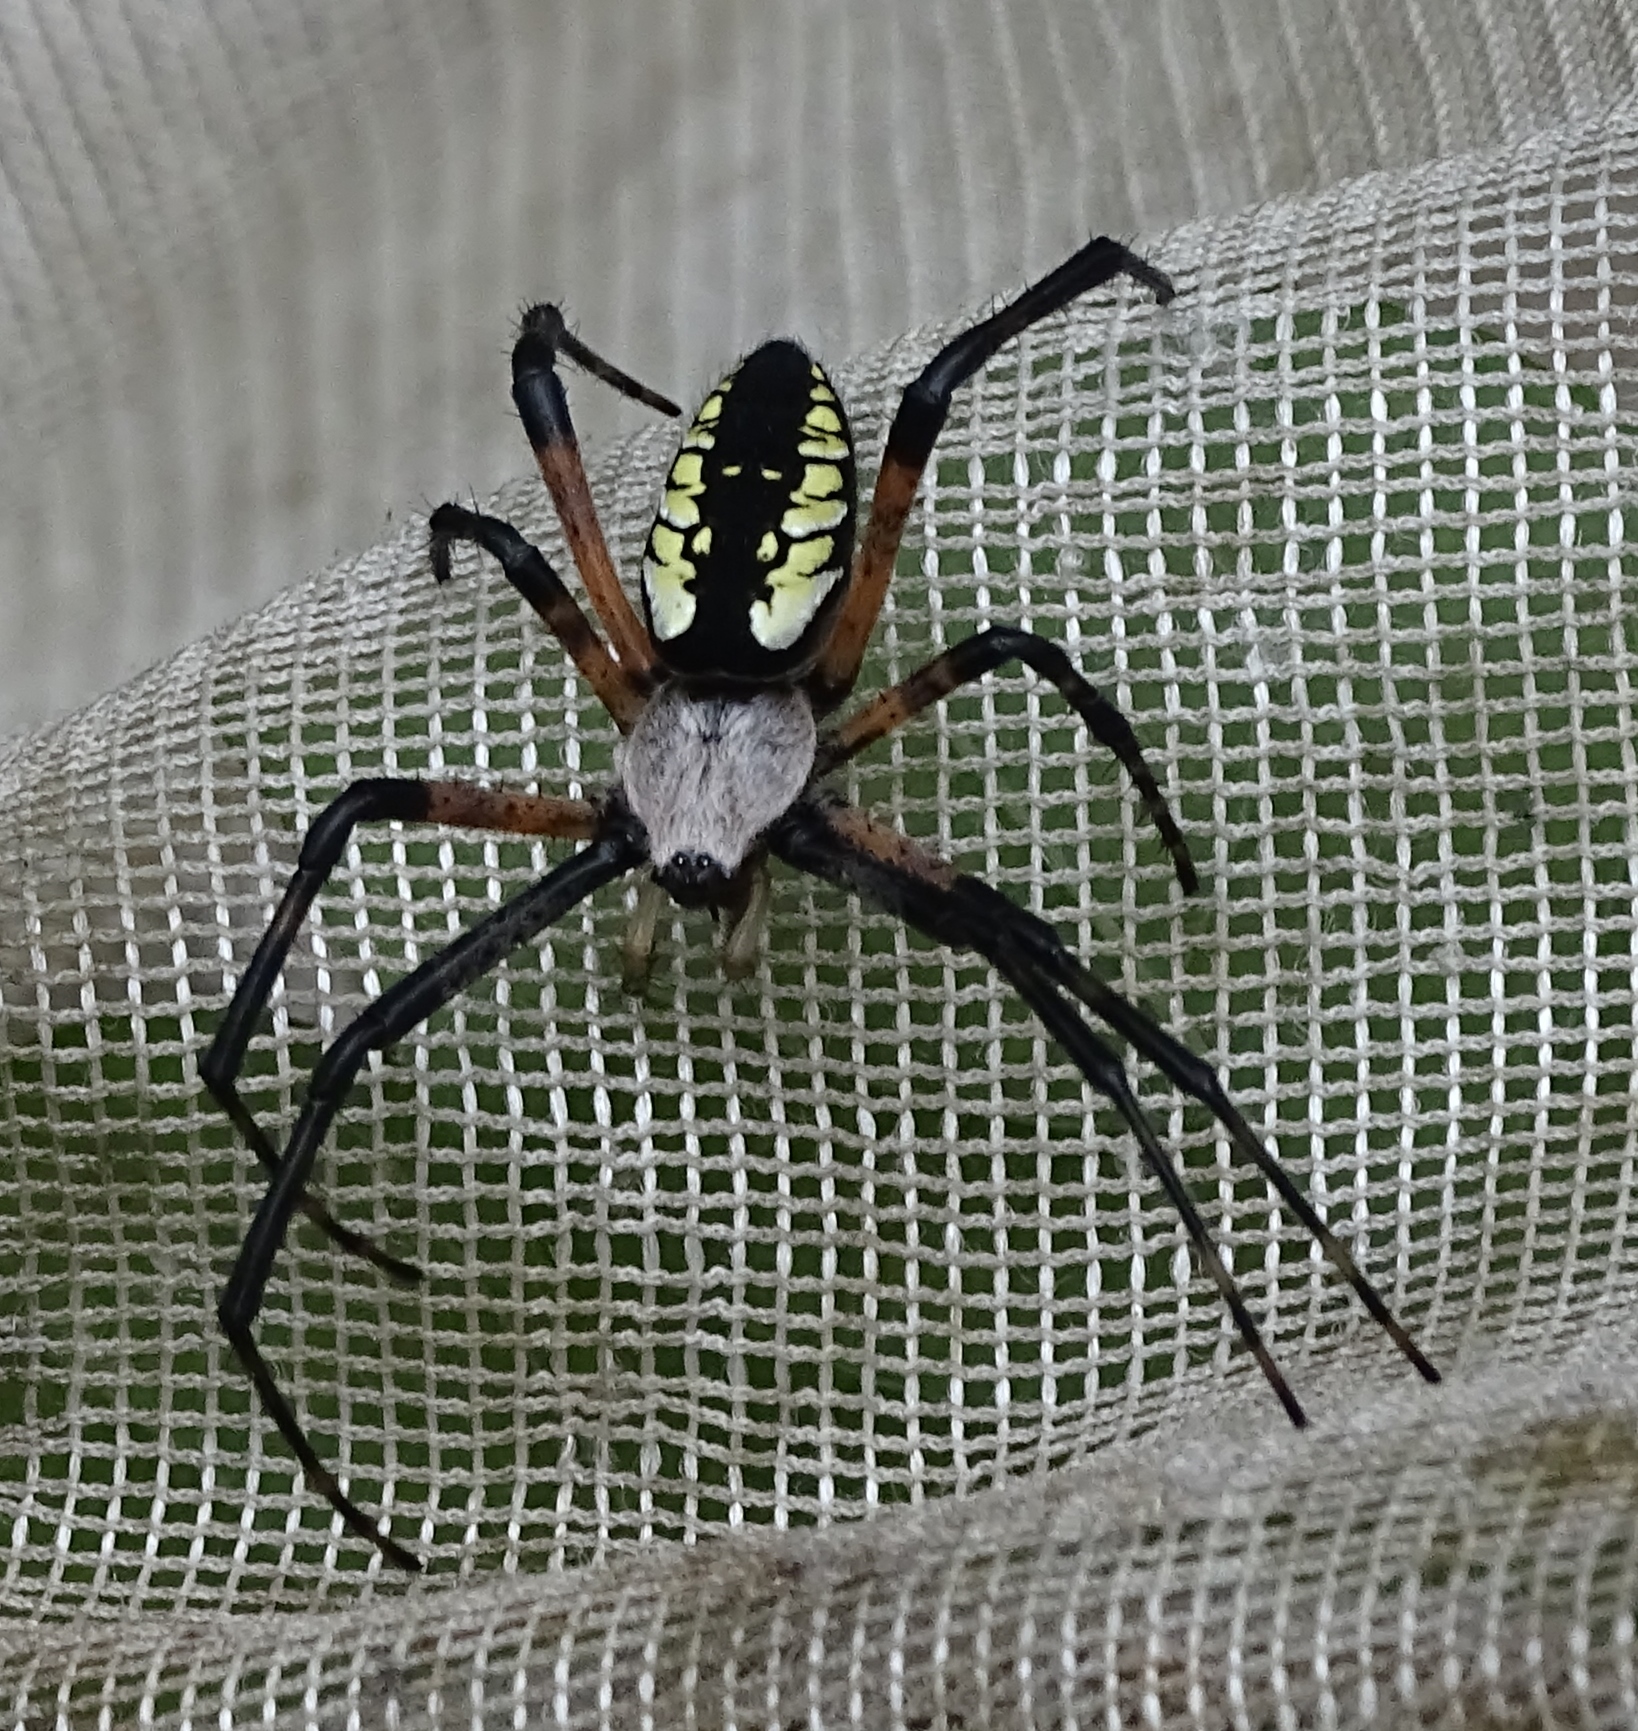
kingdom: Animalia
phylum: Arthropoda
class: Arachnida
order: Araneae
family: Araneidae
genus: Argiope
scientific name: Argiope aurantia
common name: Orb weavers
